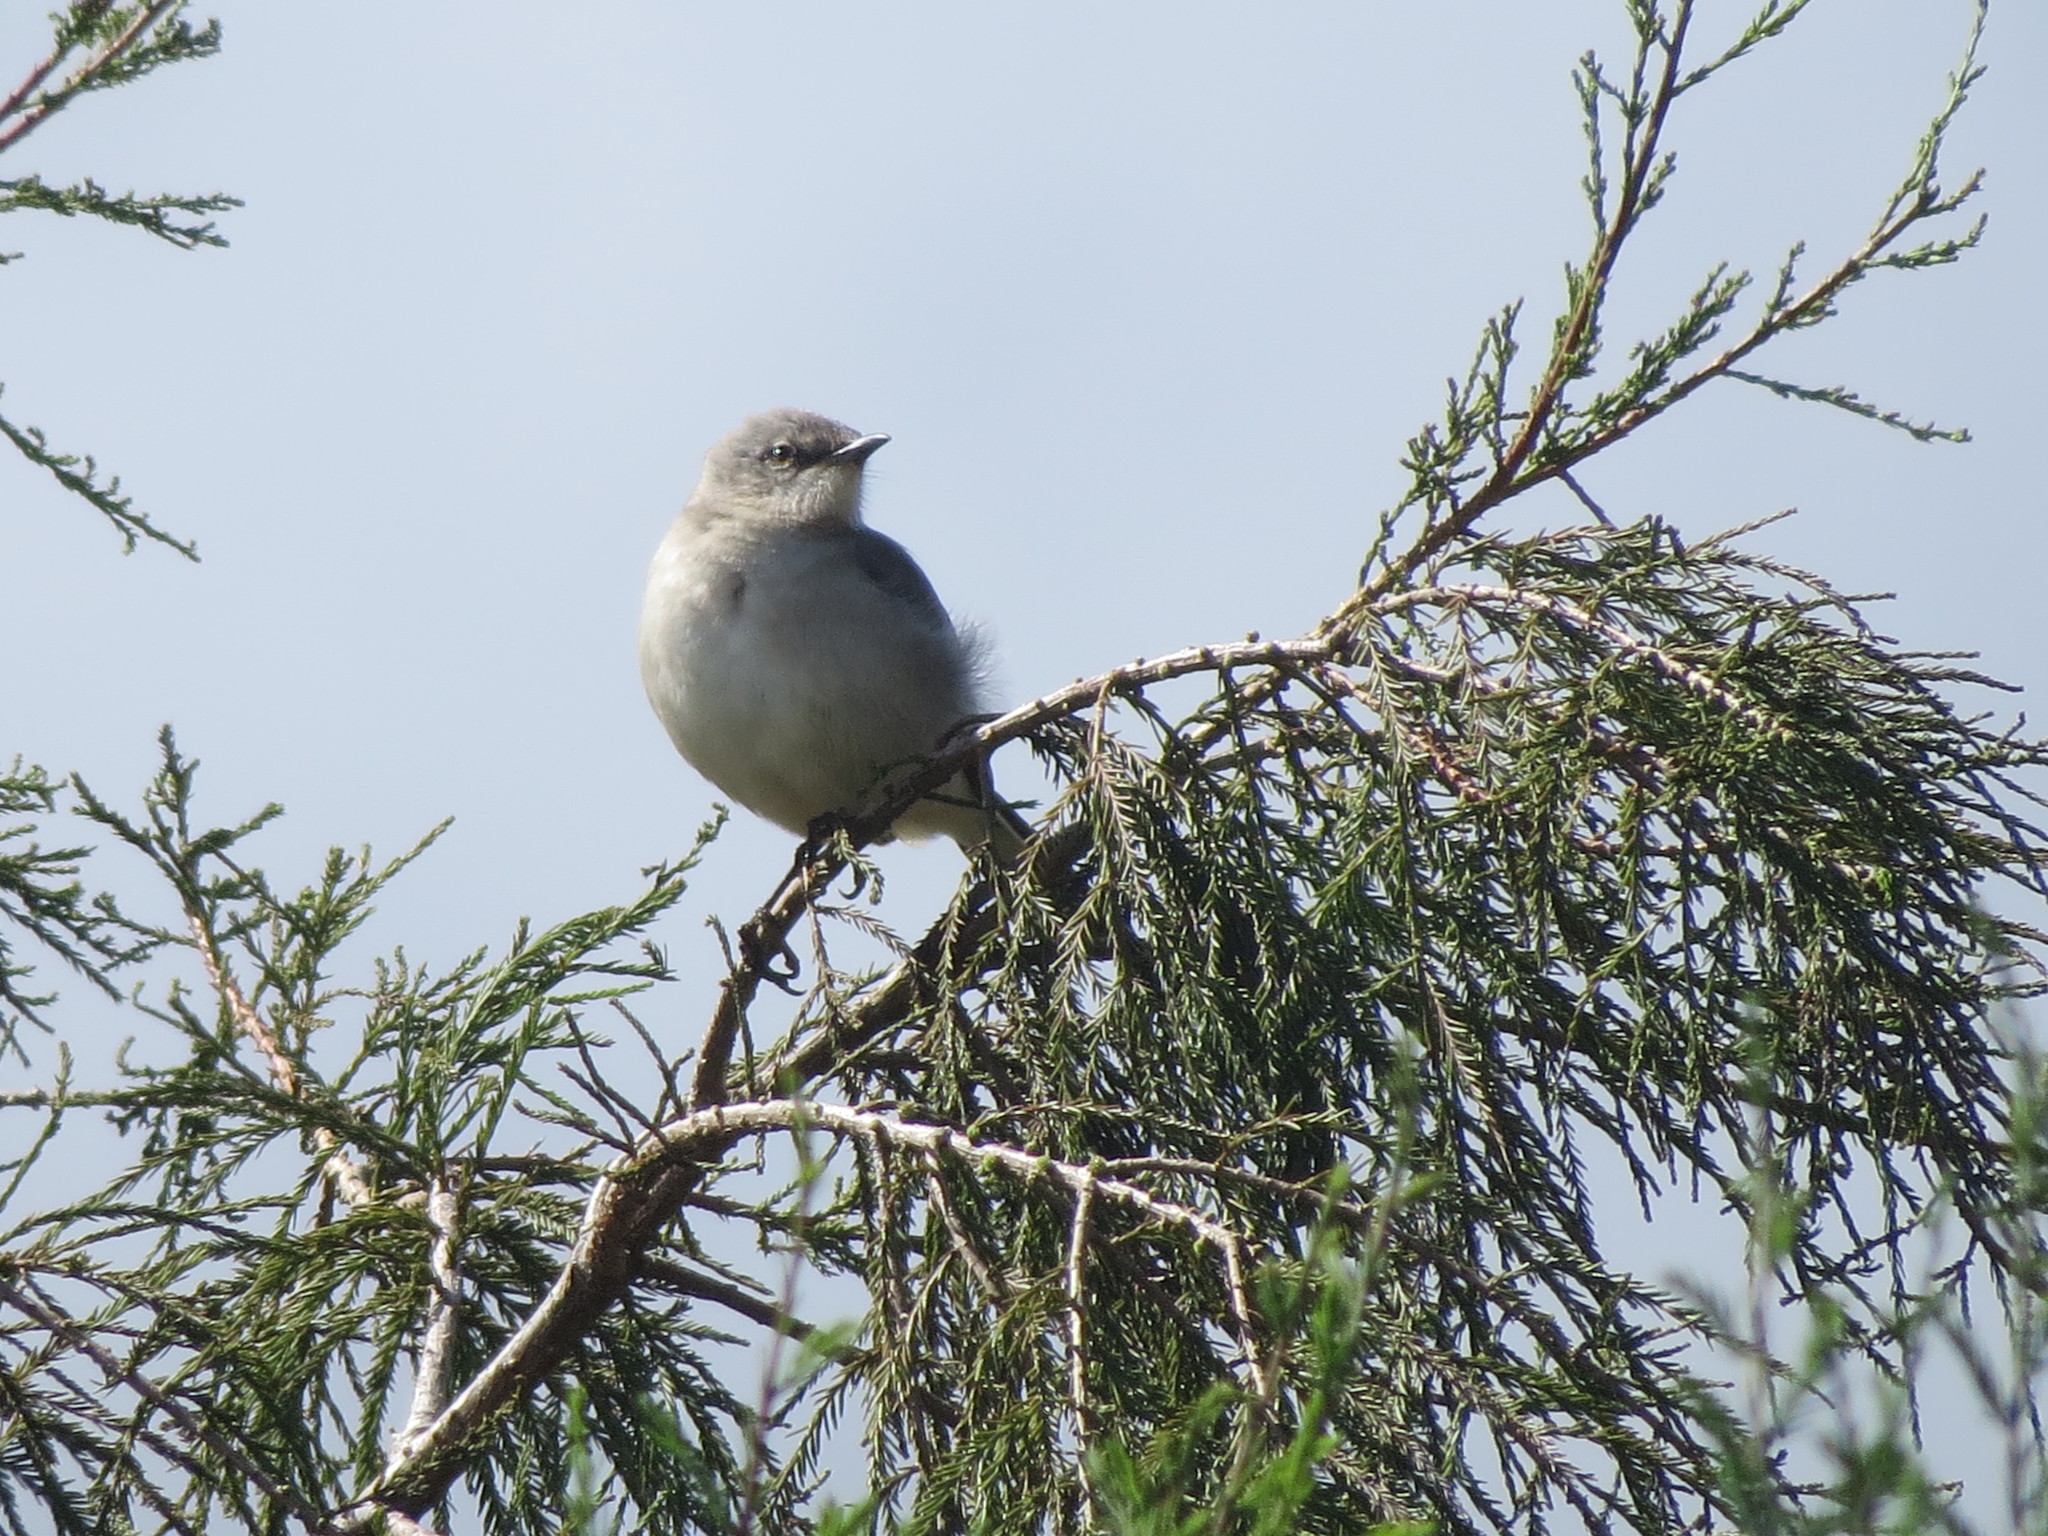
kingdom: Animalia
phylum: Chordata
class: Aves
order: Passeriformes
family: Mimidae
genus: Mimus
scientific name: Mimus gilvus
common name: Tropical mockingbird
